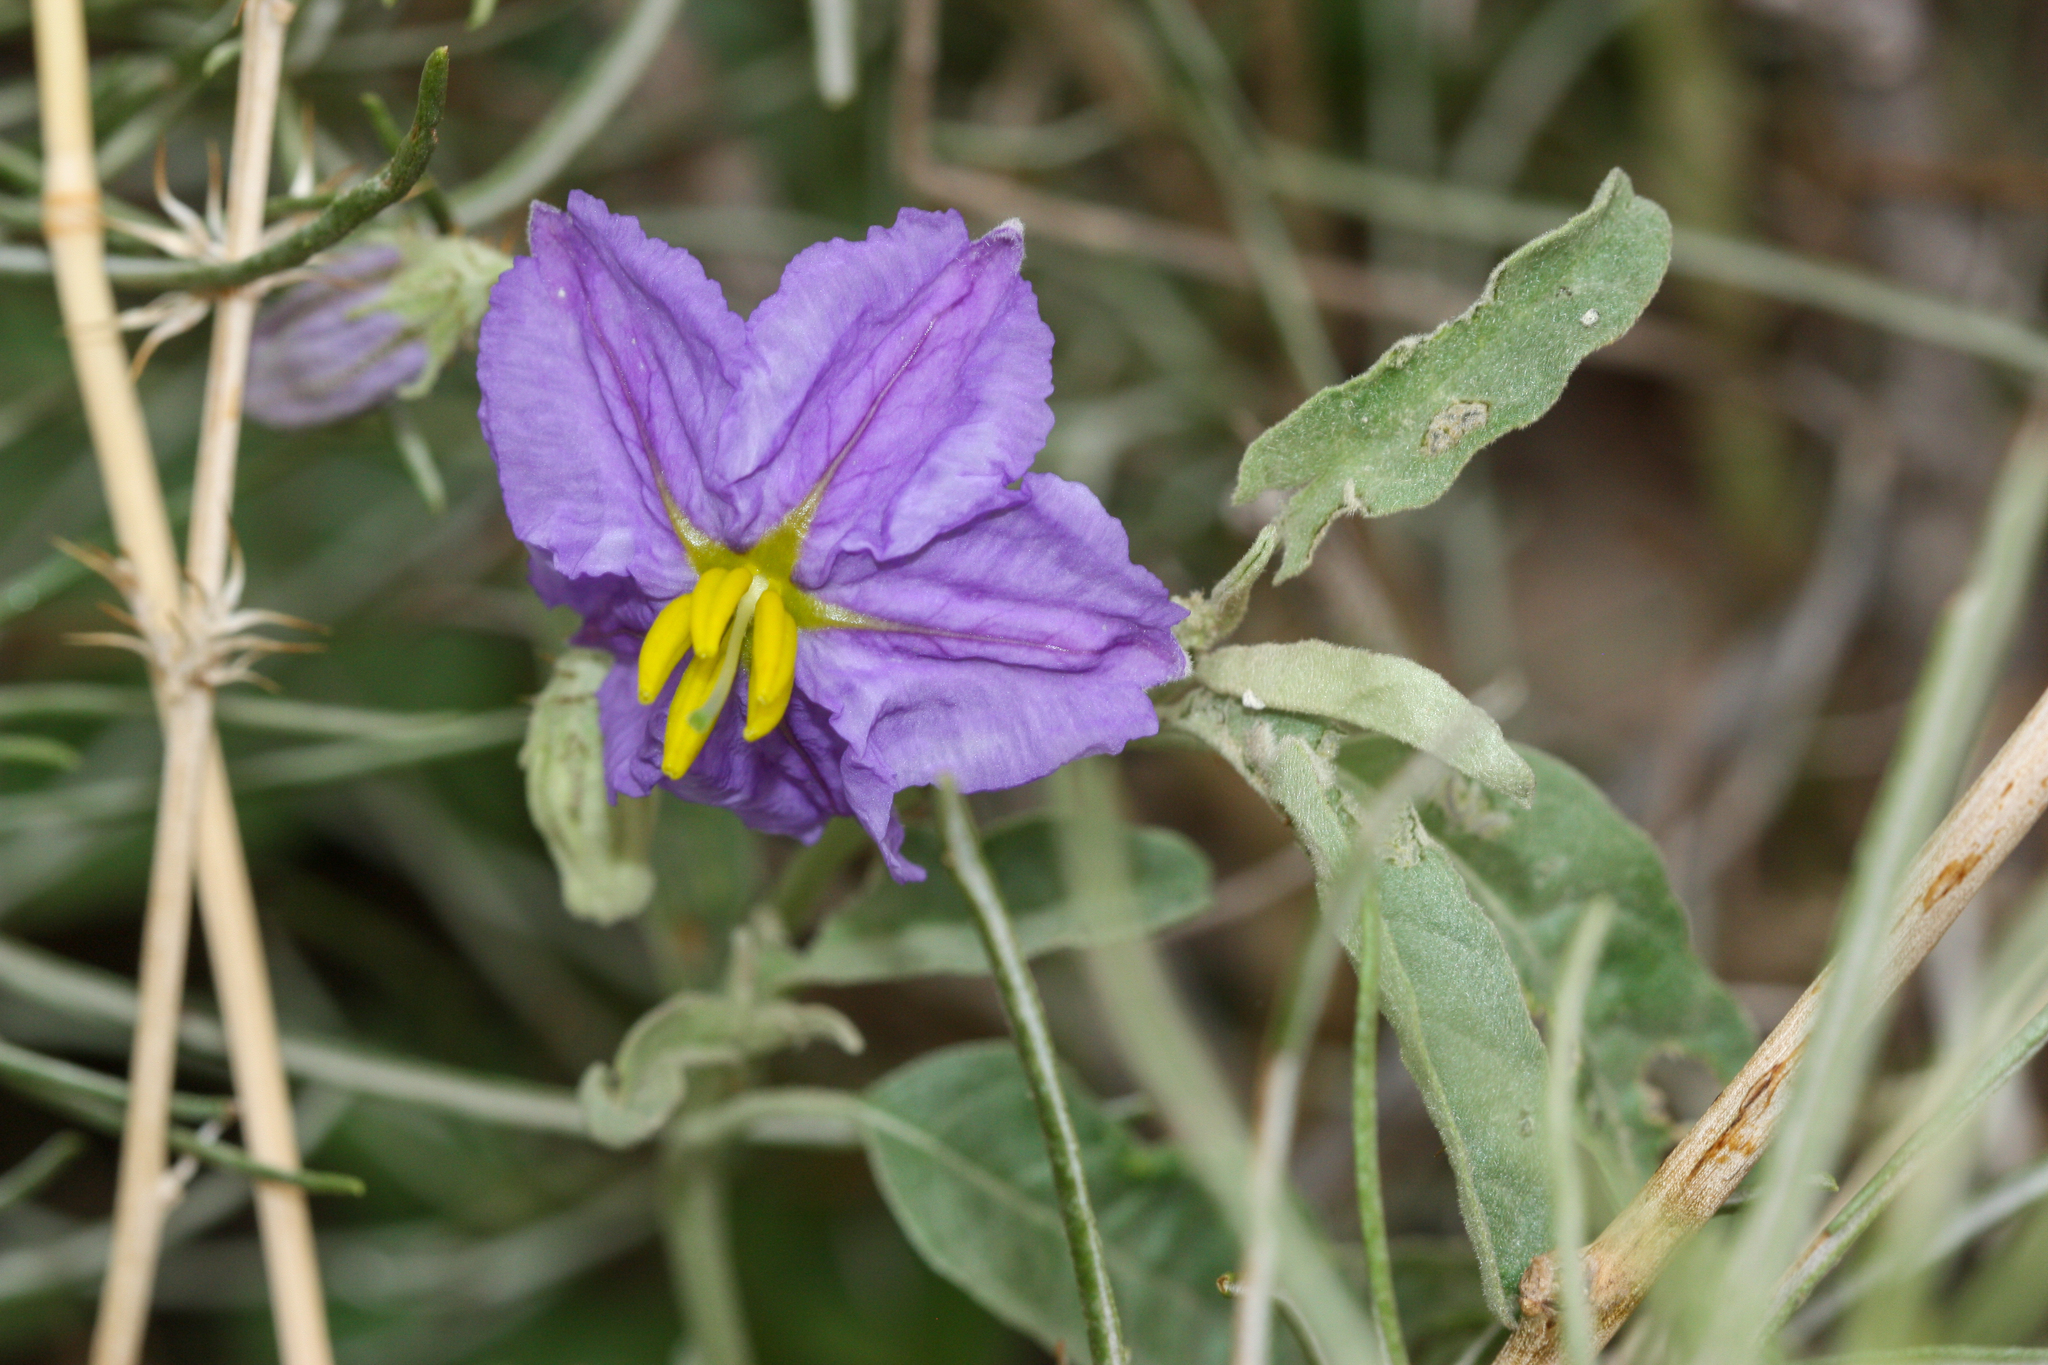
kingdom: Plantae
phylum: Tracheophyta
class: Magnoliopsida
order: Solanales
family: Solanaceae
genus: Solanum
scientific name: Solanum elaeagnifolium
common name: Silverleaf nightshade
